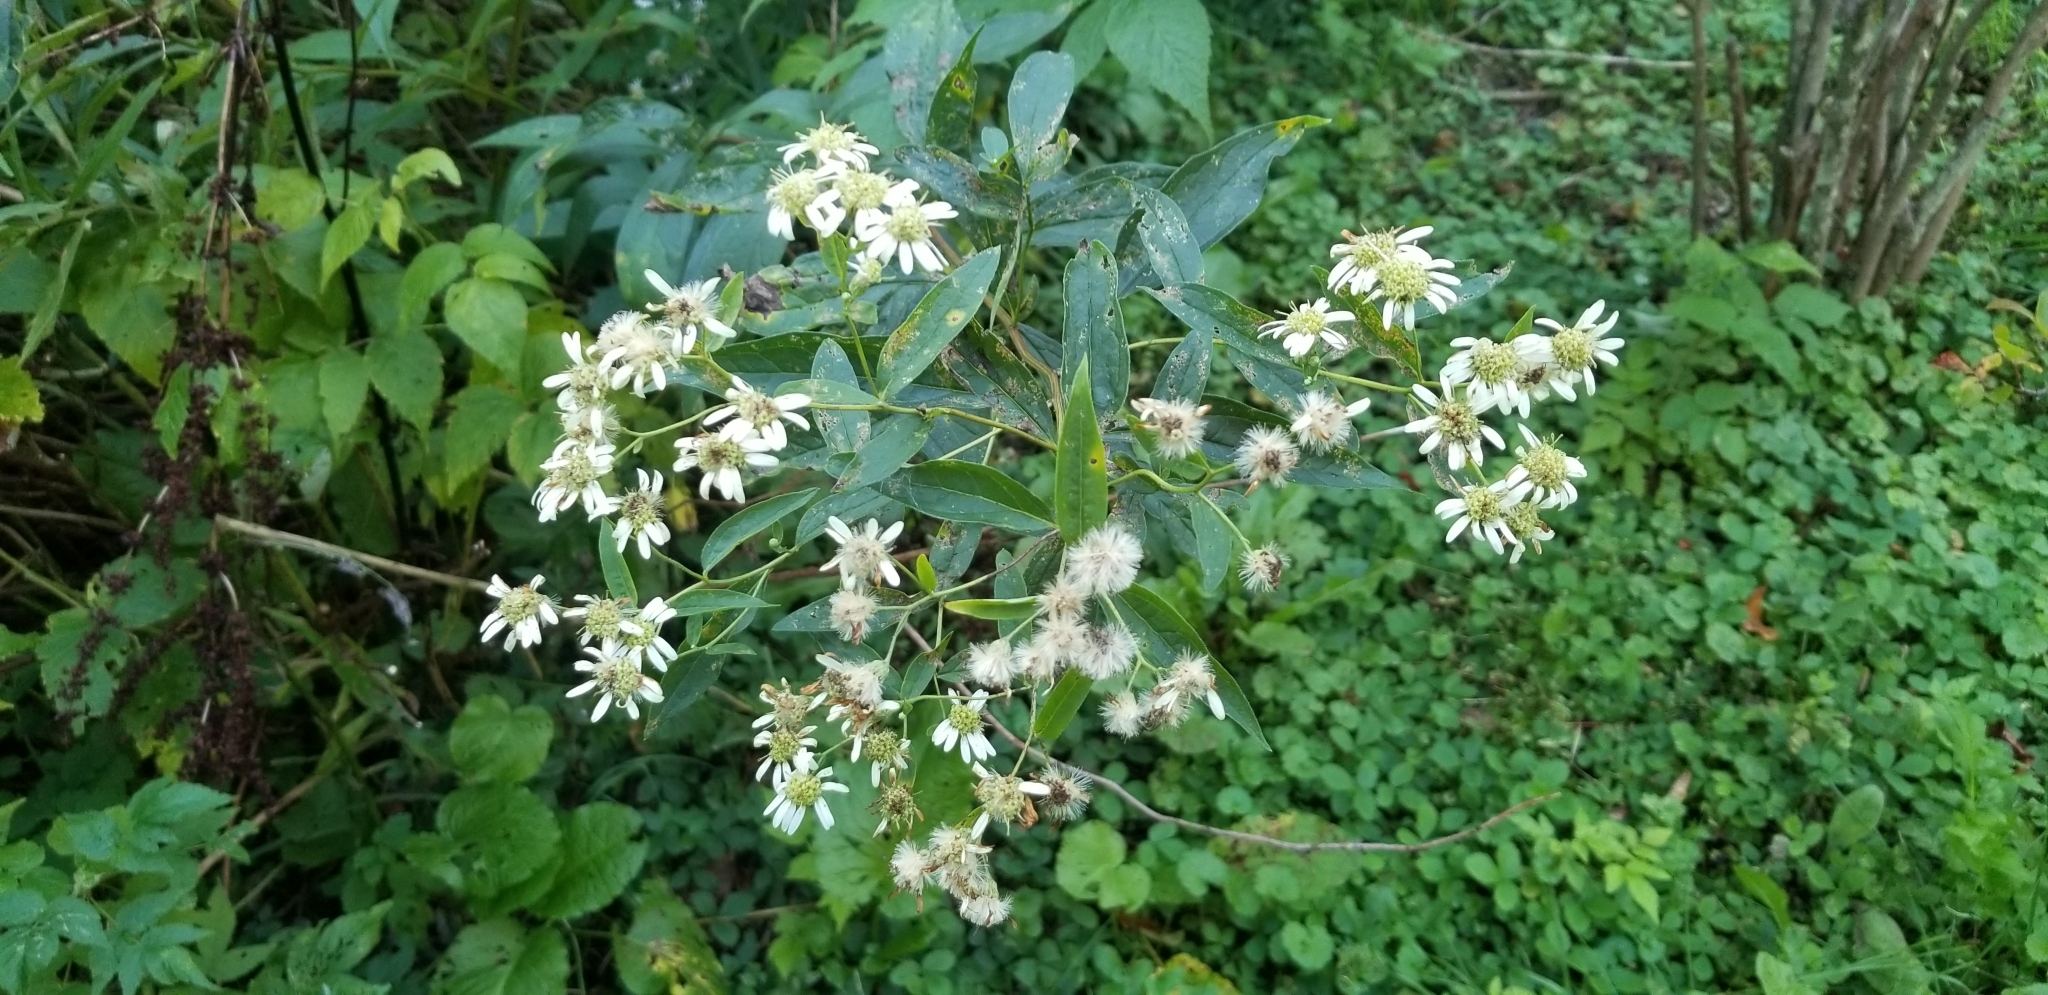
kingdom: Plantae
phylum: Tracheophyta
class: Magnoliopsida
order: Asterales
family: Asteraceae
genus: Doellingeria
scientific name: Doellingeria umbellata
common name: Flat-top white aster
